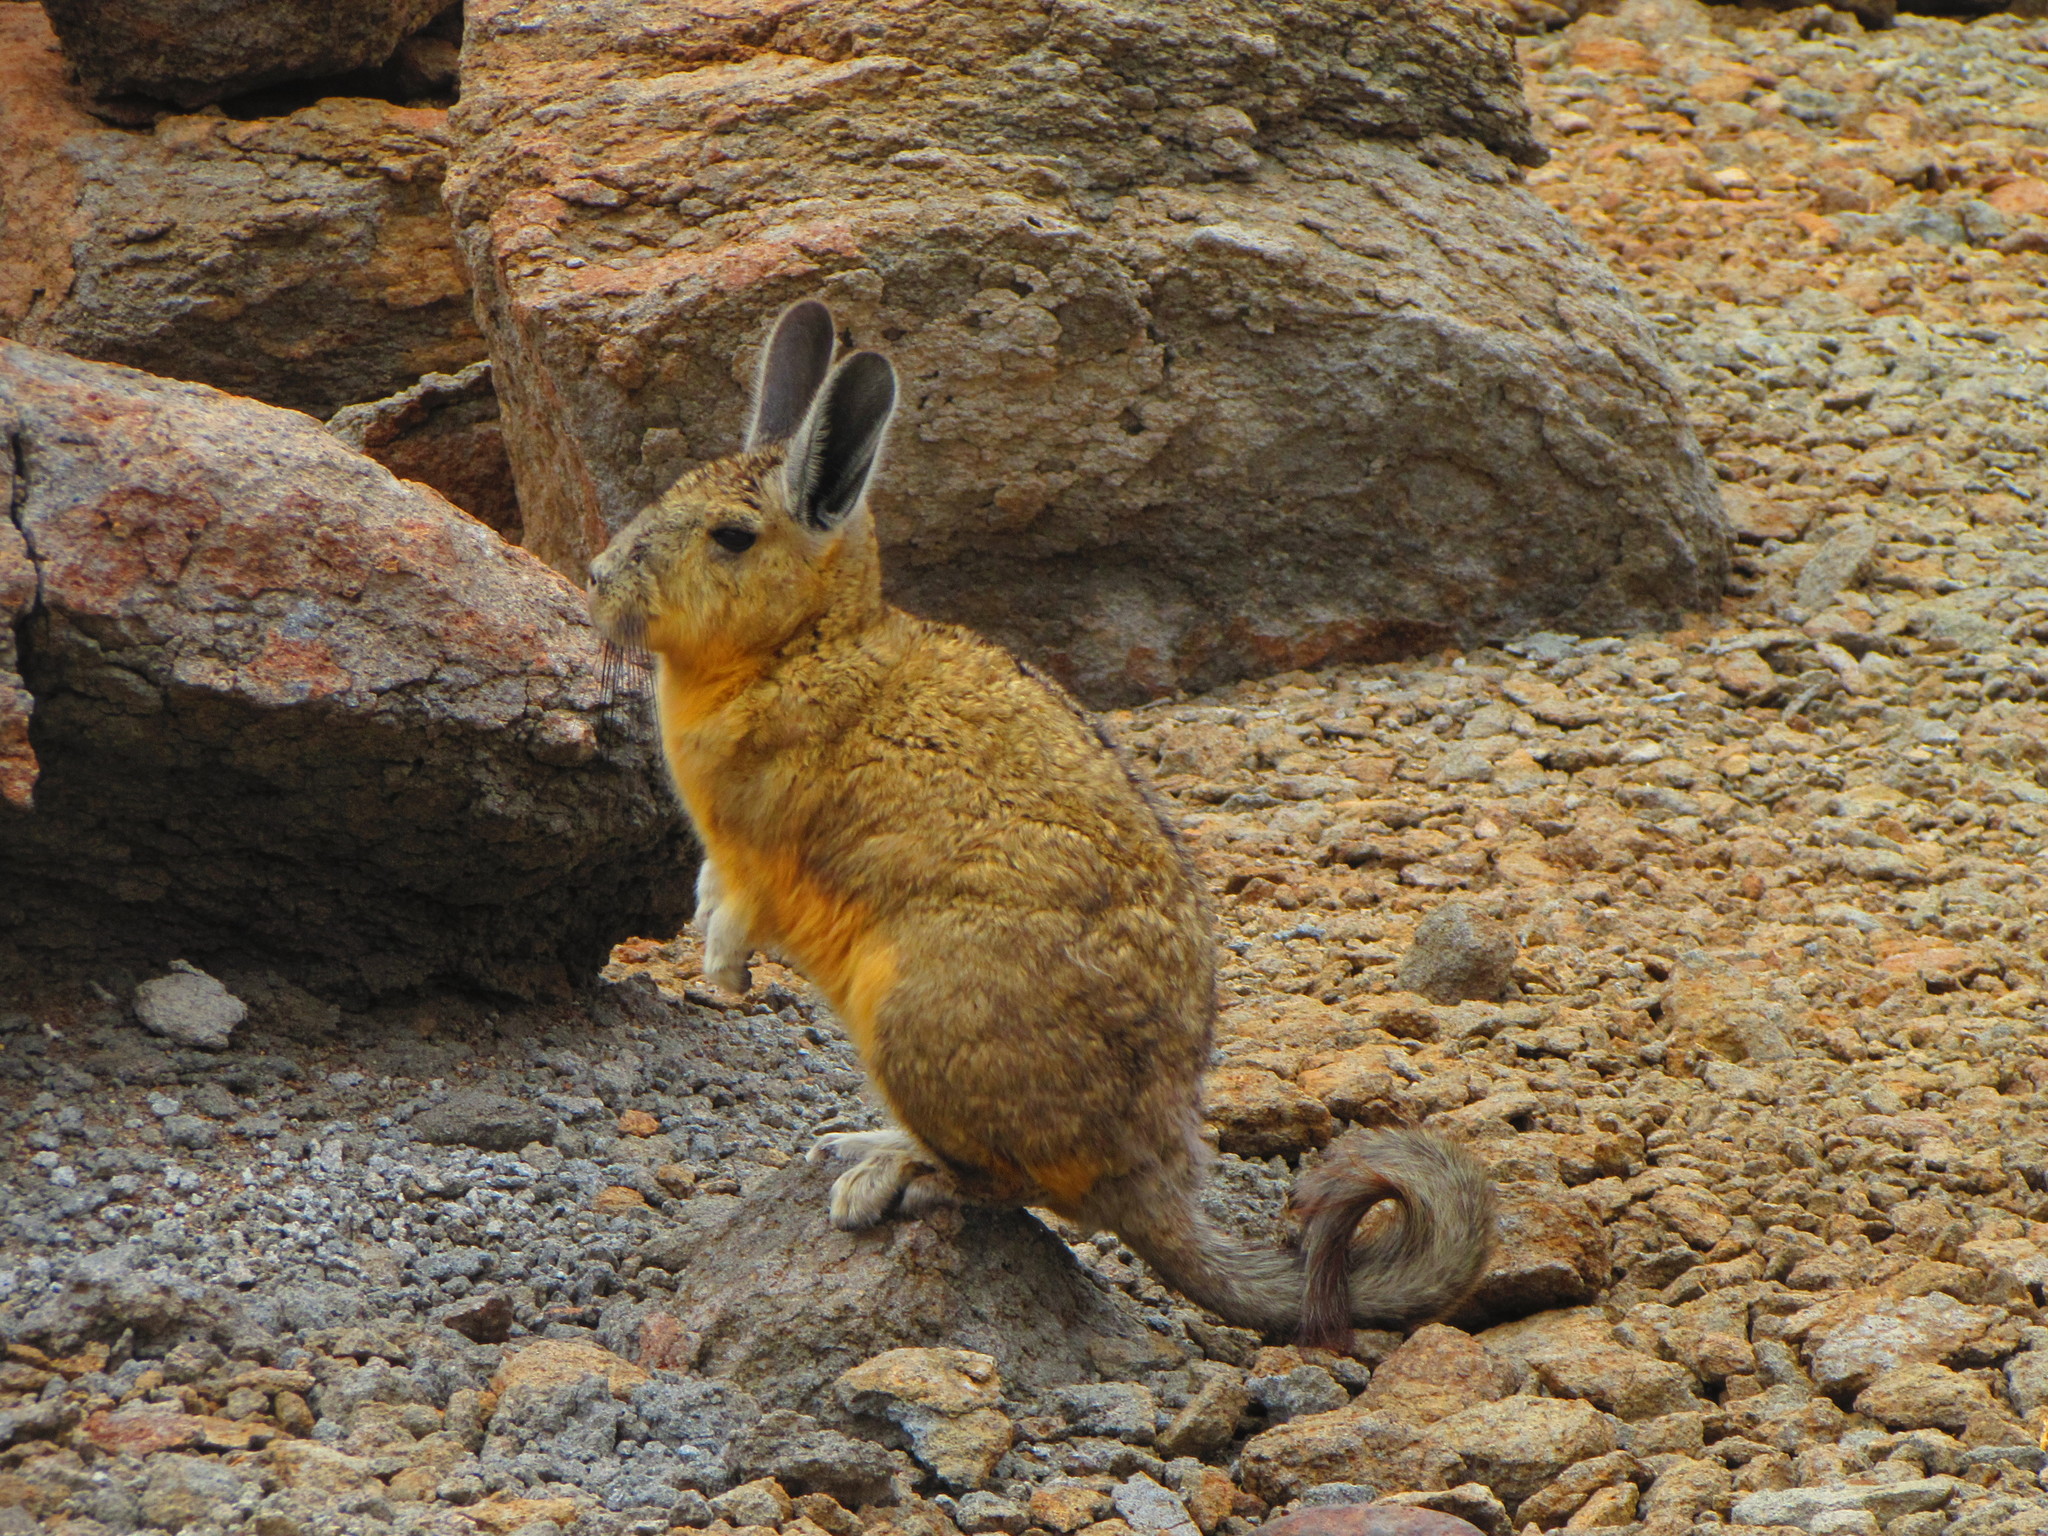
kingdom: Animalia
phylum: Chordata
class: Mammalia
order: Rodentia
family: Chinchillidae
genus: Lagidium
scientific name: Lagidium viscacia
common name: Southern viscacha
